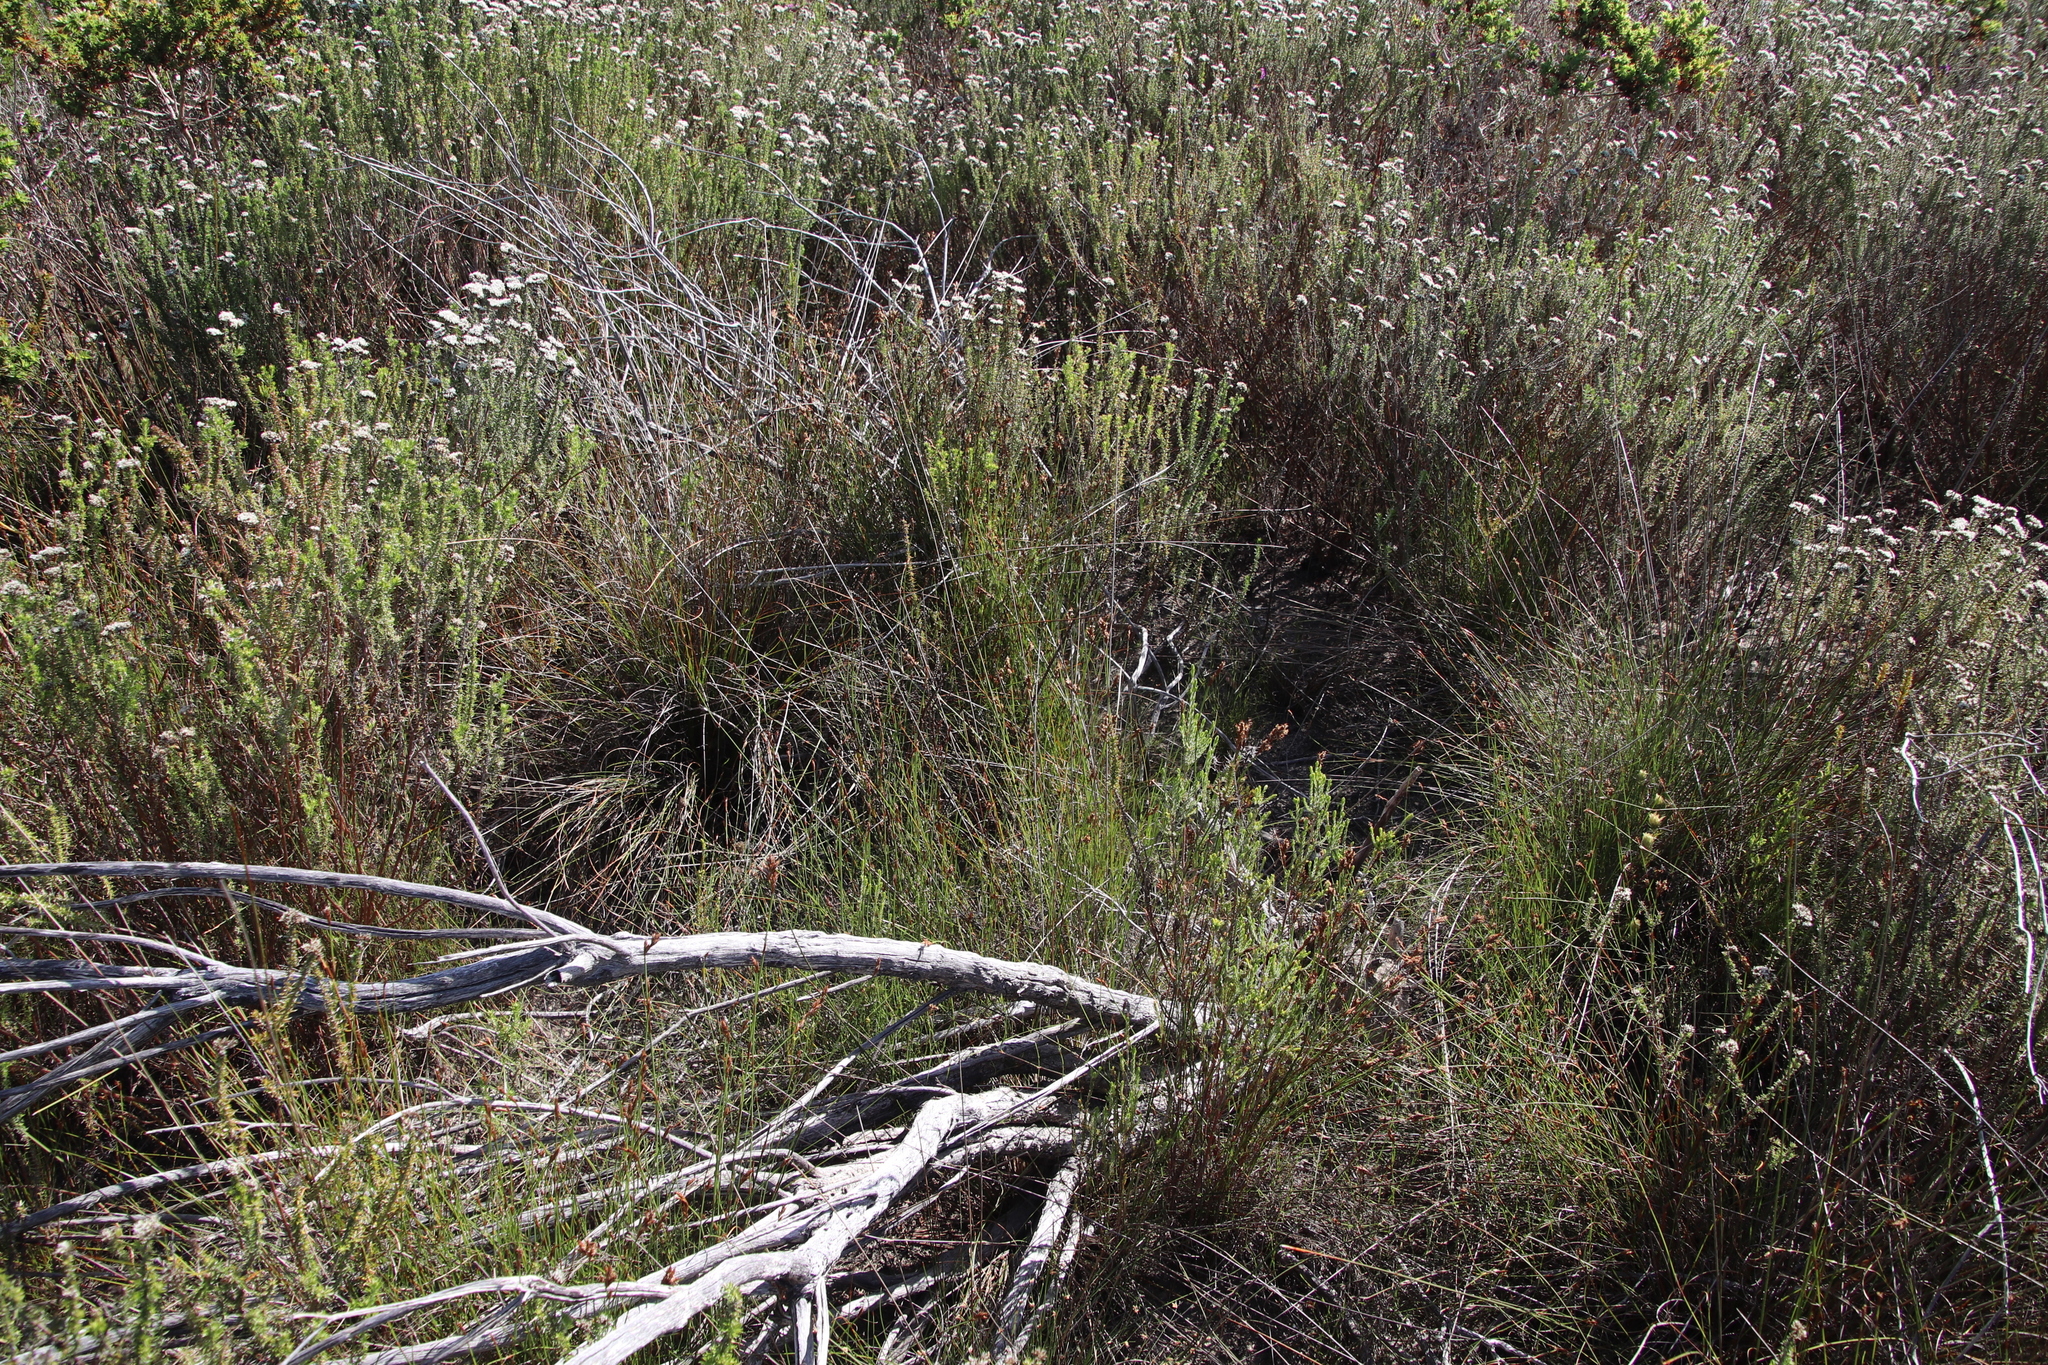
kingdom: Plantae
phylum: Tracheophyta
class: Liliopsida
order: Poales
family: Restionaceae
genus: Restio
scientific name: Restio capensis
